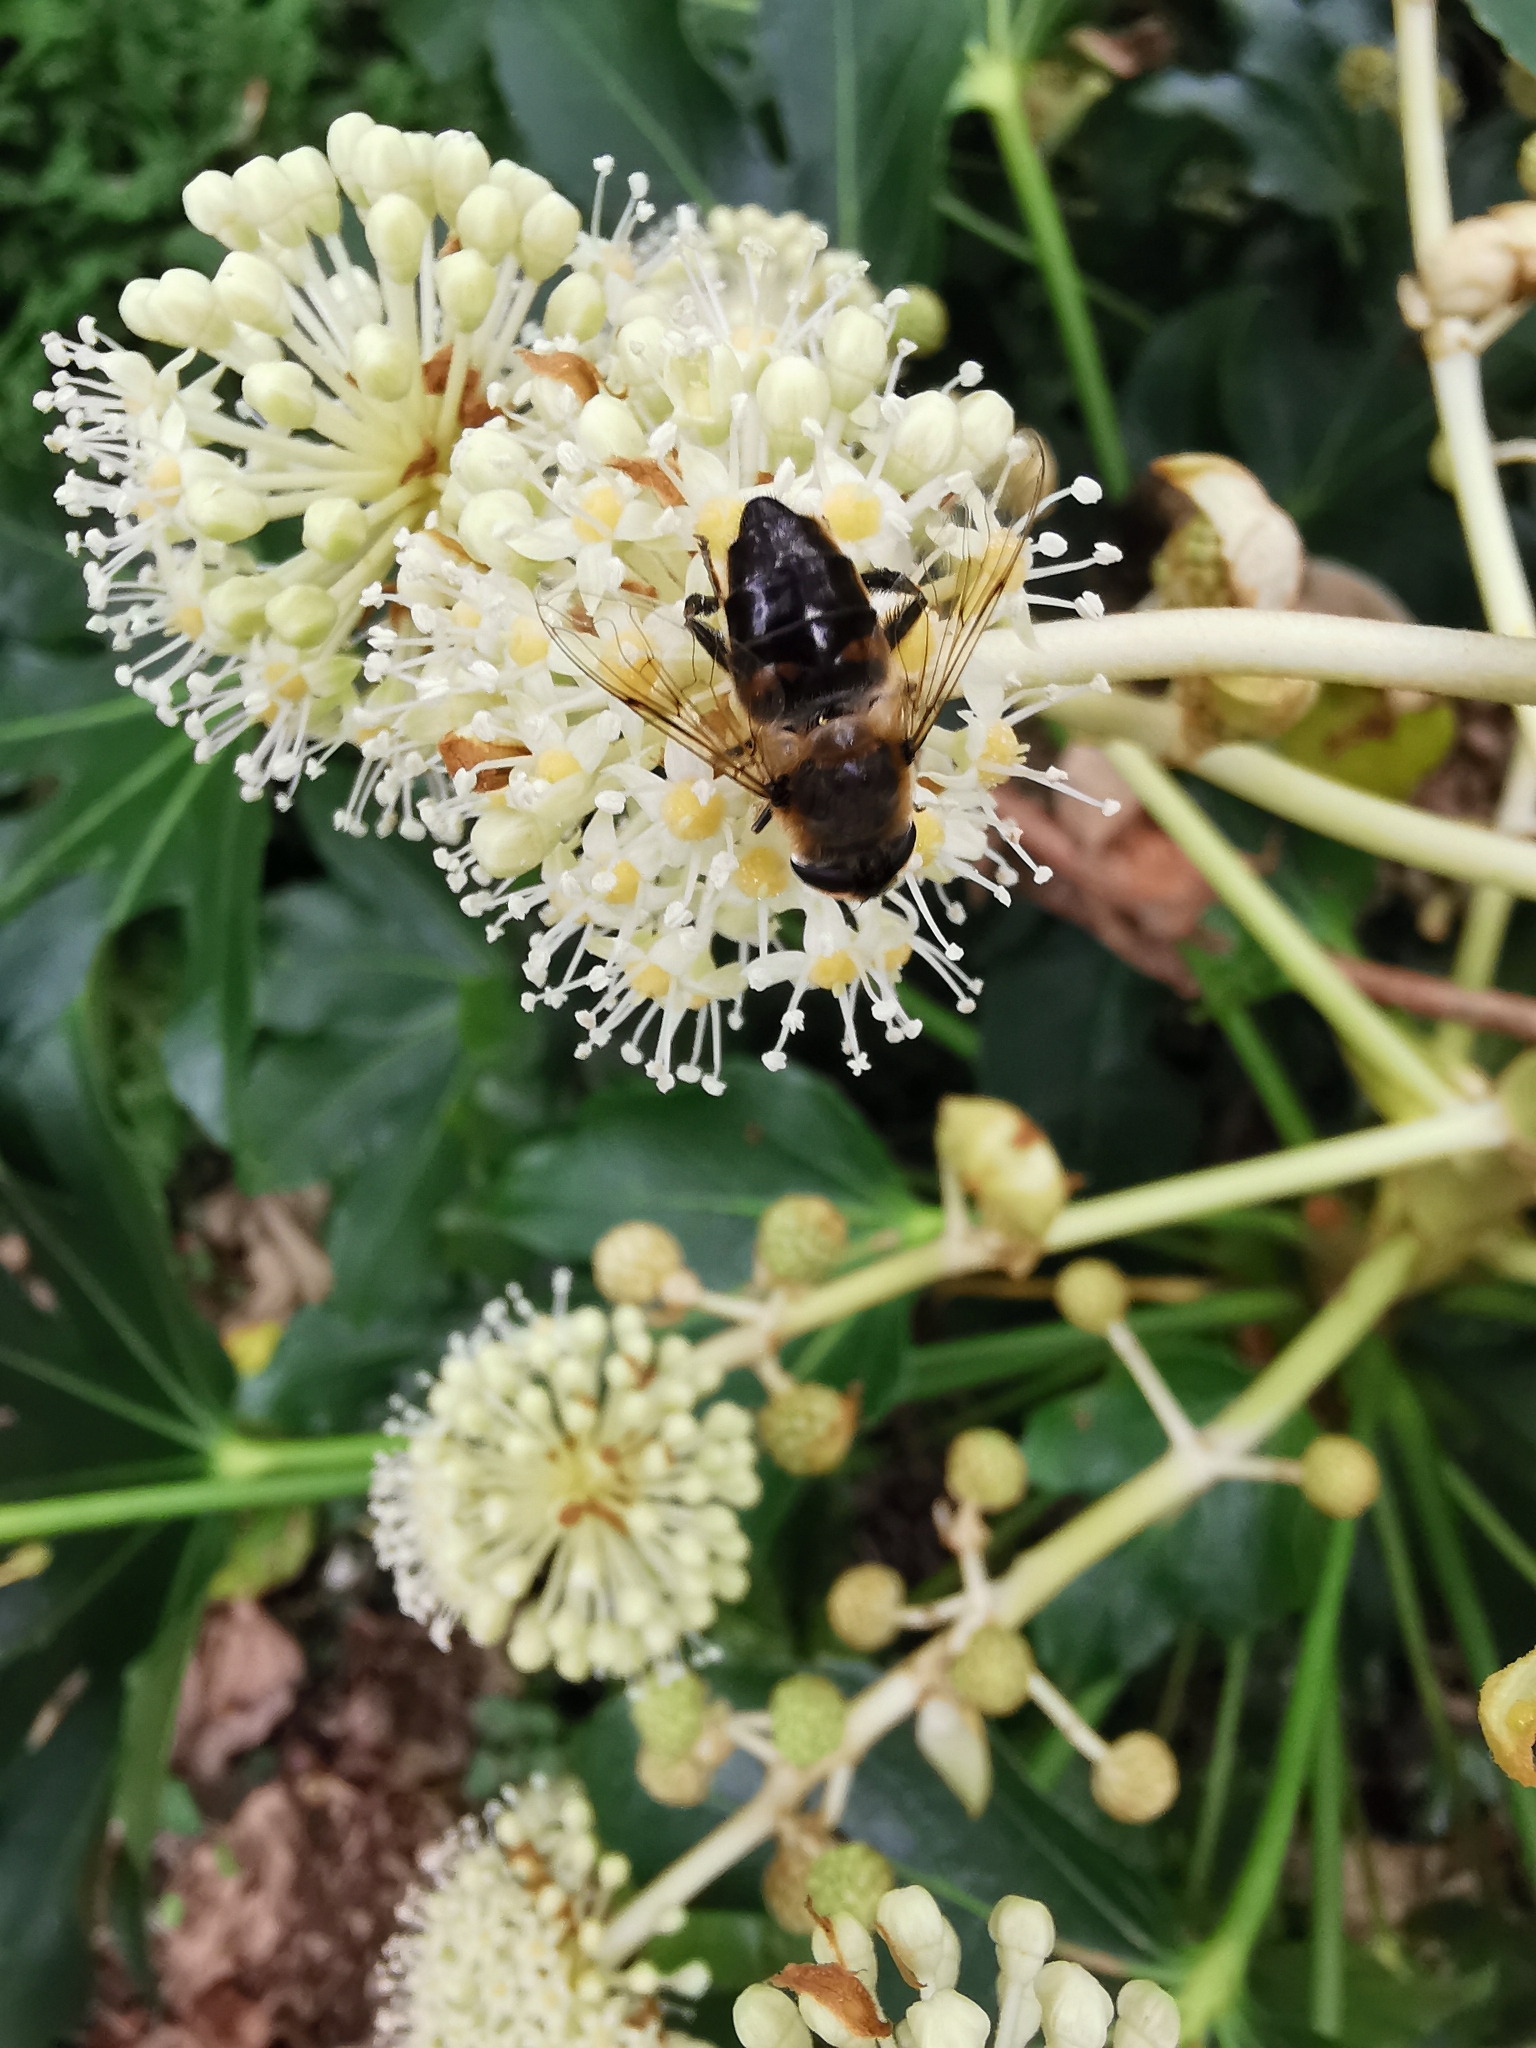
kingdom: Animalia
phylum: Arthropoda
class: Insecta
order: Diptera
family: Syrphidae
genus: Eristalis
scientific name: Eristalis tenax
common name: Drone fly
